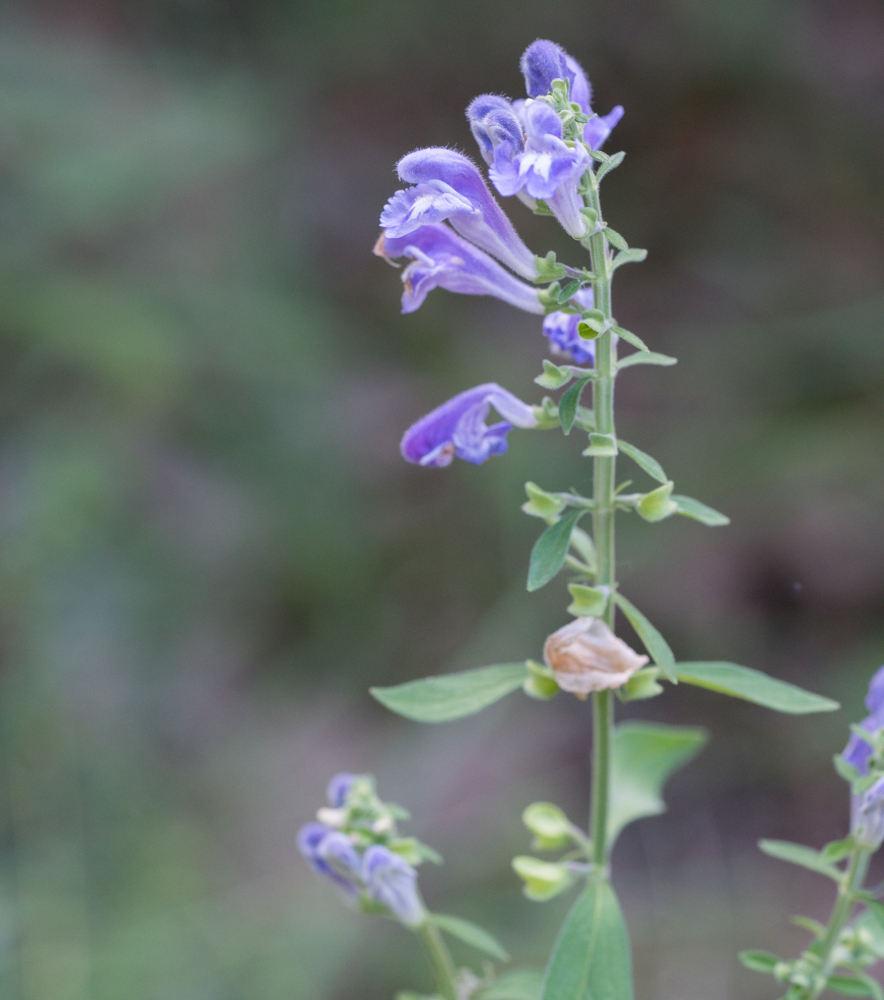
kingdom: Plantae
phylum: Tracheophyta
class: Magnoliopsida
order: Lamiales
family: Lamiaceae
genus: Scutellaria
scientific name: Scutellaria integrifolia
